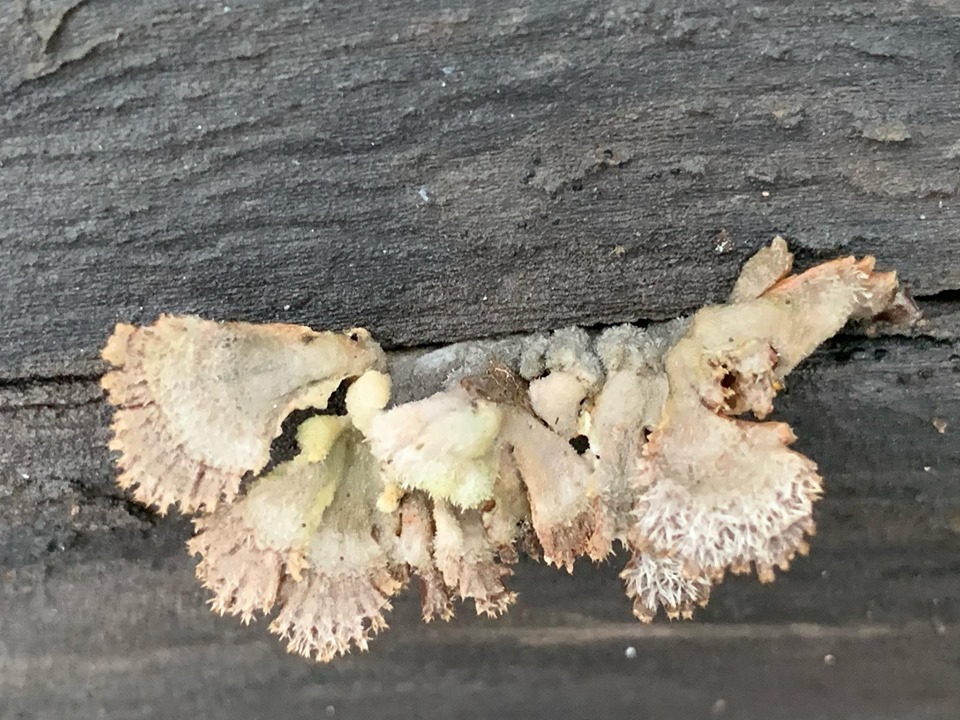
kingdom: Fungi
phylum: Basidiomycota
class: Agaricomycetes
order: Agaricales
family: Schizophyllaceae
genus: Schizophyllum
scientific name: Schizophyllum commune
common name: Common porecrust
